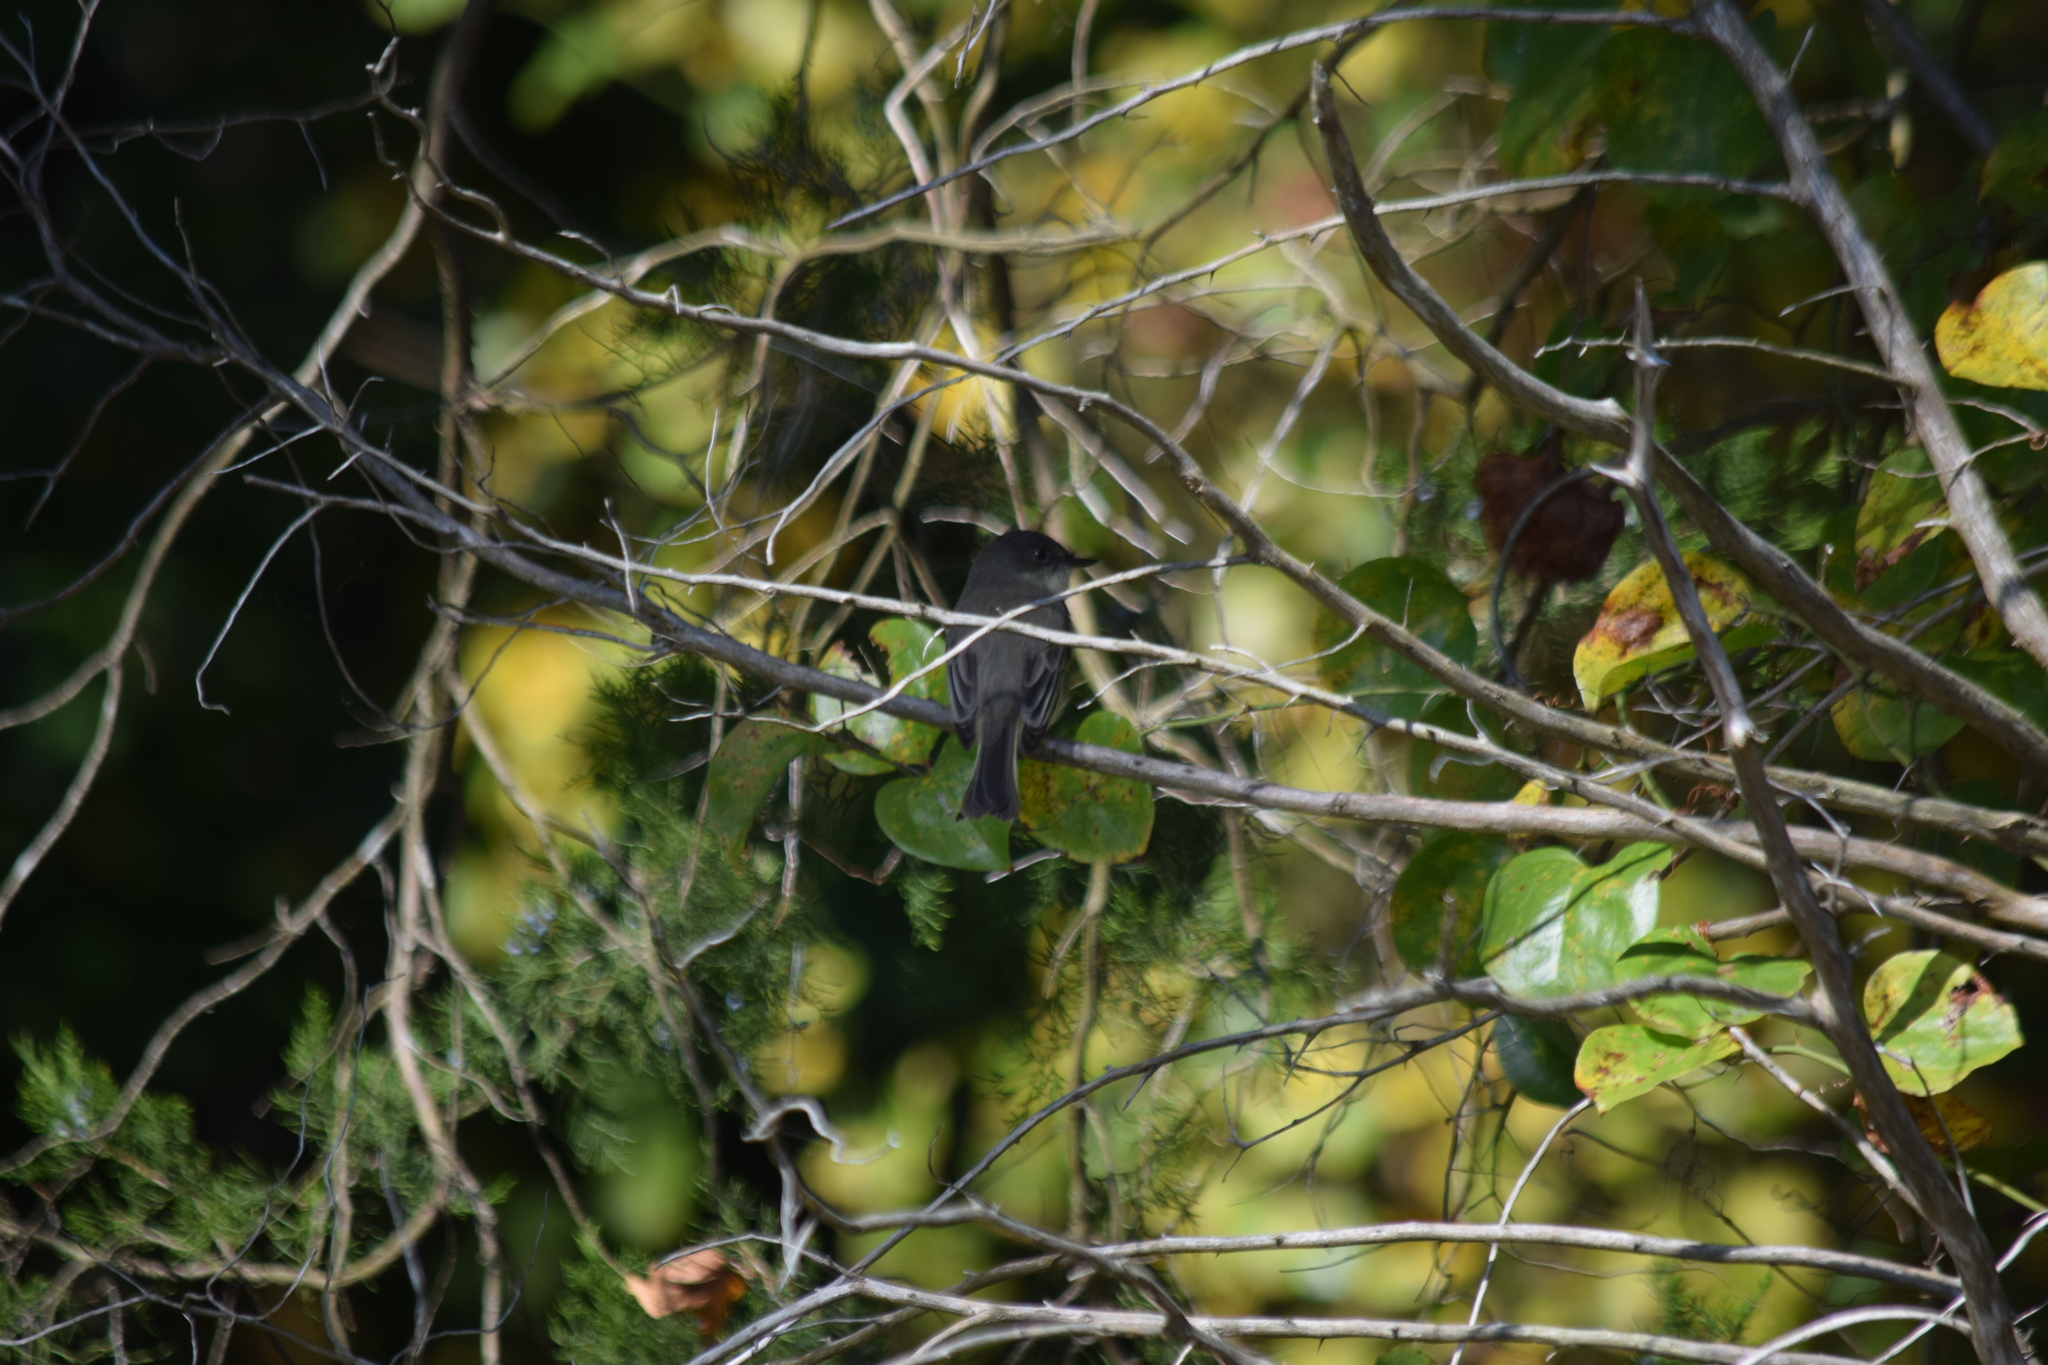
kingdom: Animalia
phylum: Chordata
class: Aves
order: Passeriformes
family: Tyrannidae
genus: Sayornis
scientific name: Sayornis phoebe
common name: Eastern phoebe
